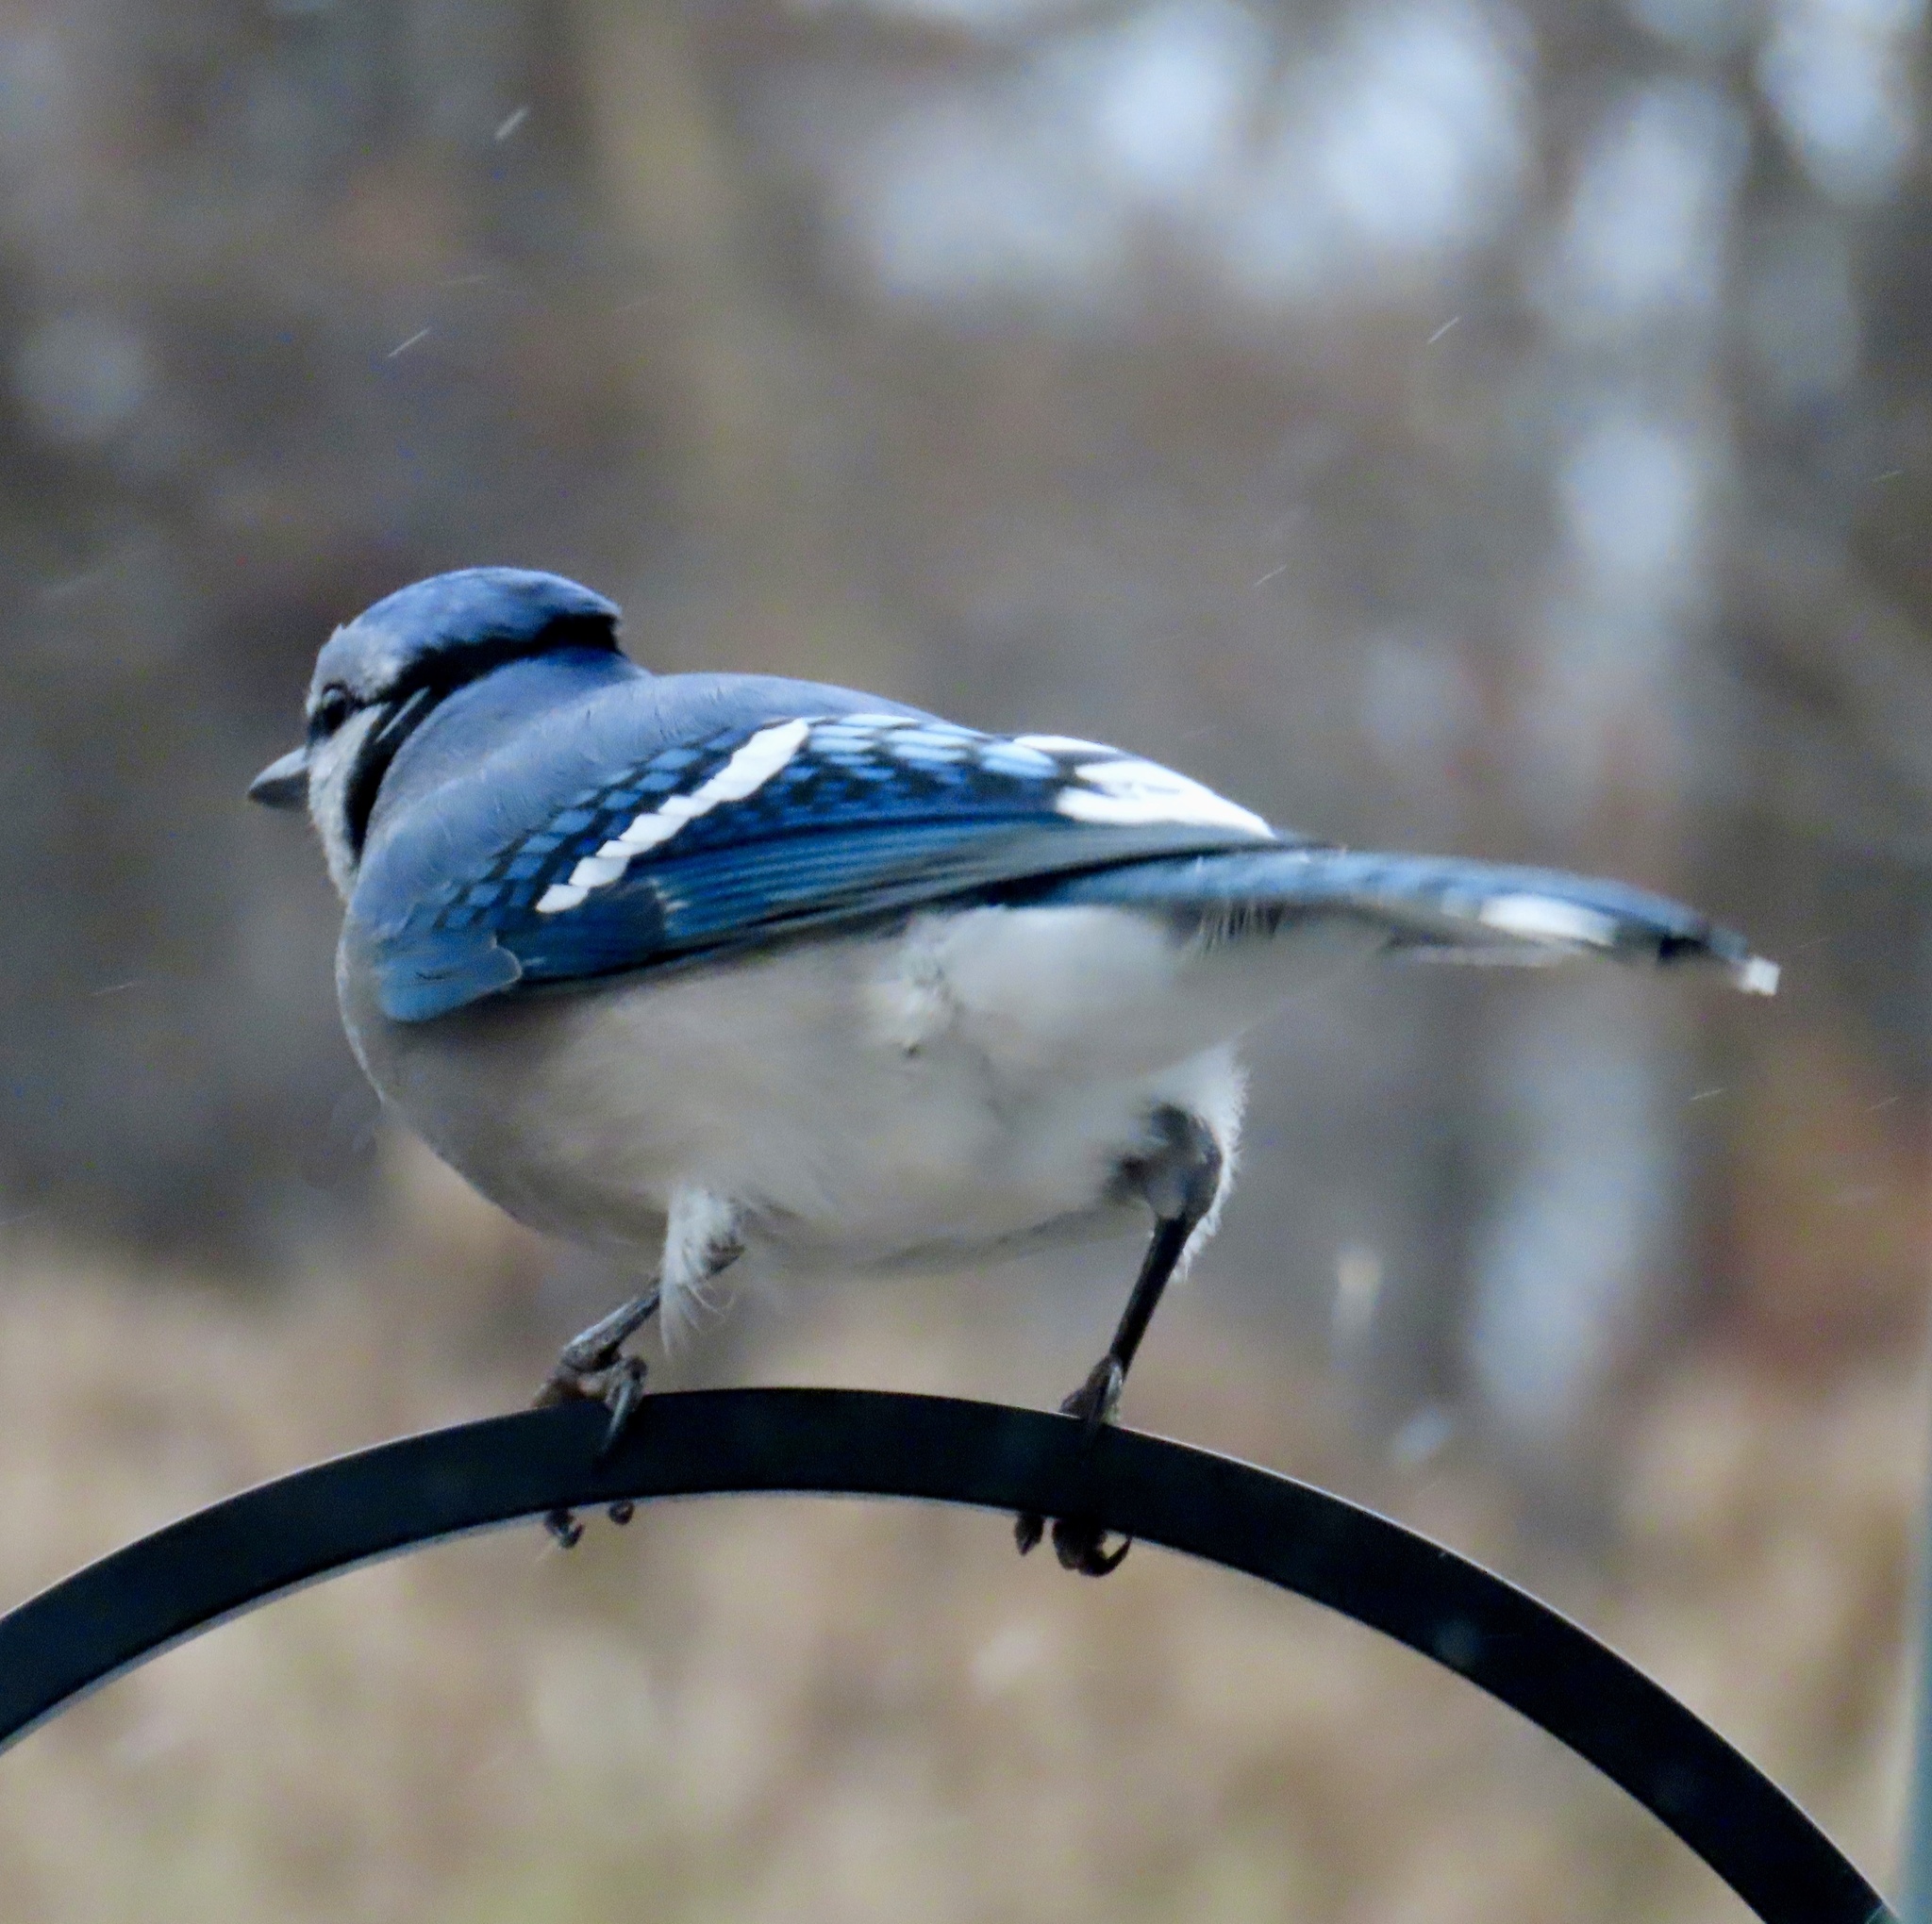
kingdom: Animalia
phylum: Chordata
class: Aves
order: Passeriformes
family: Corvidae
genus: Cyanocitta
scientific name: Cyanocitta cristata
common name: Blue jay
